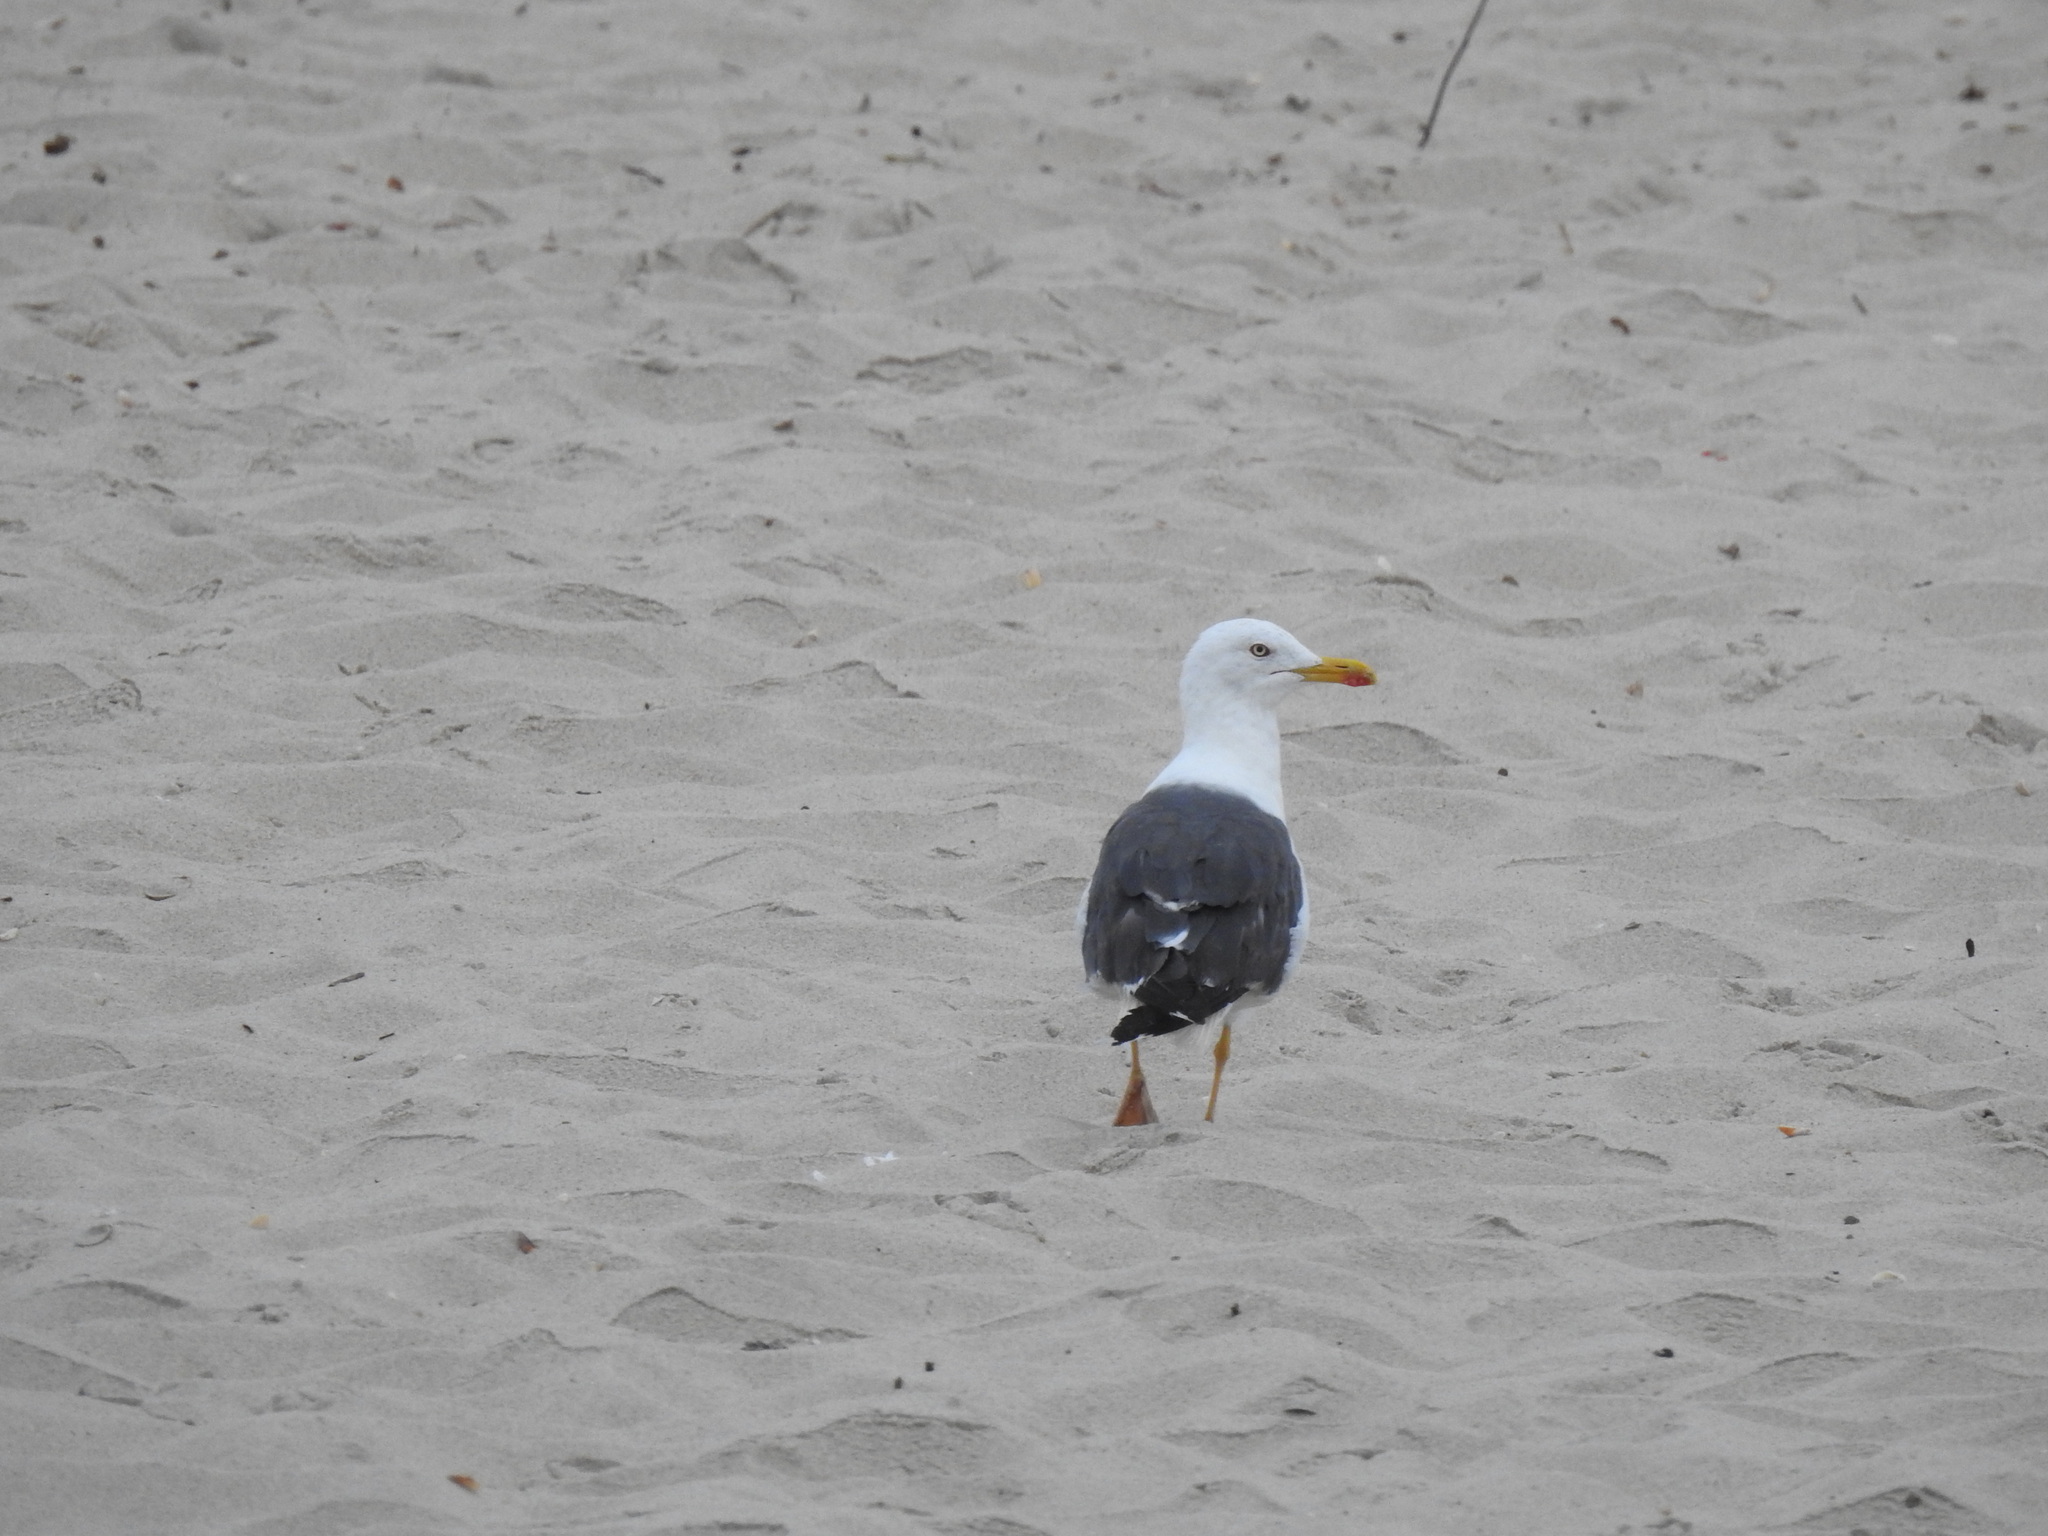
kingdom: Animalia
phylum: Chordata
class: Aves
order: Charadriiformes
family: Laridae
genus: Larus
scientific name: Larus fuscus
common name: Lesser black-backed gull
